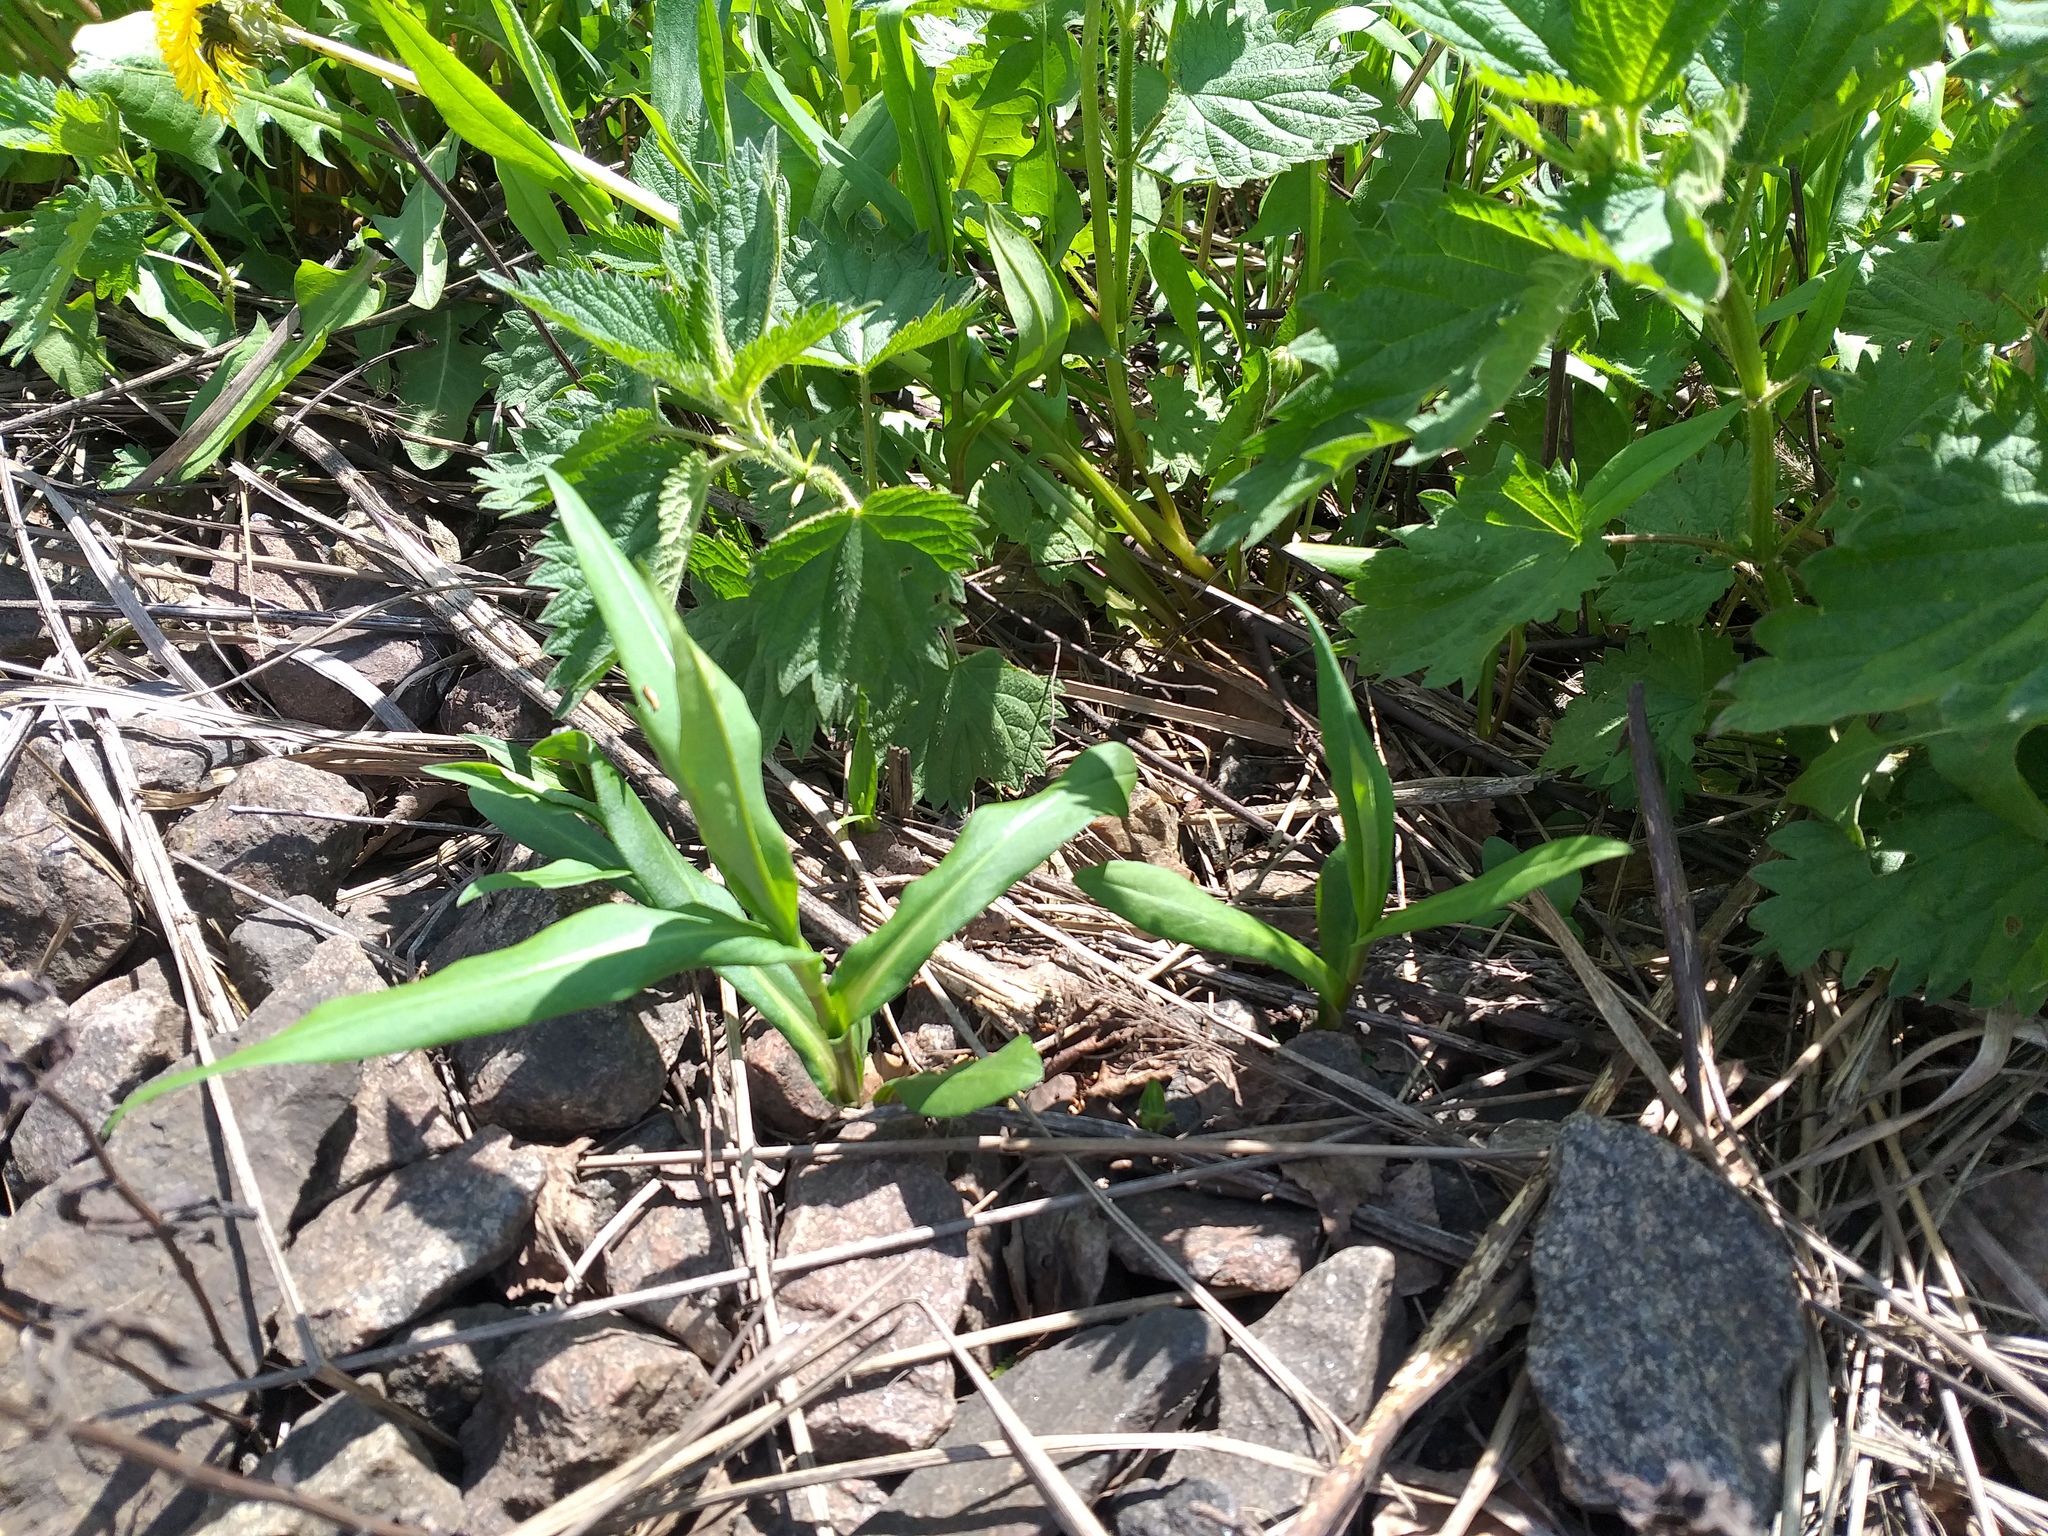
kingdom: Plantae
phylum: Tracheophyta
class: Magnoliopsida
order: Asterales
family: Asteraceae
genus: Symphyotrichum
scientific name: Symphyotrichum
